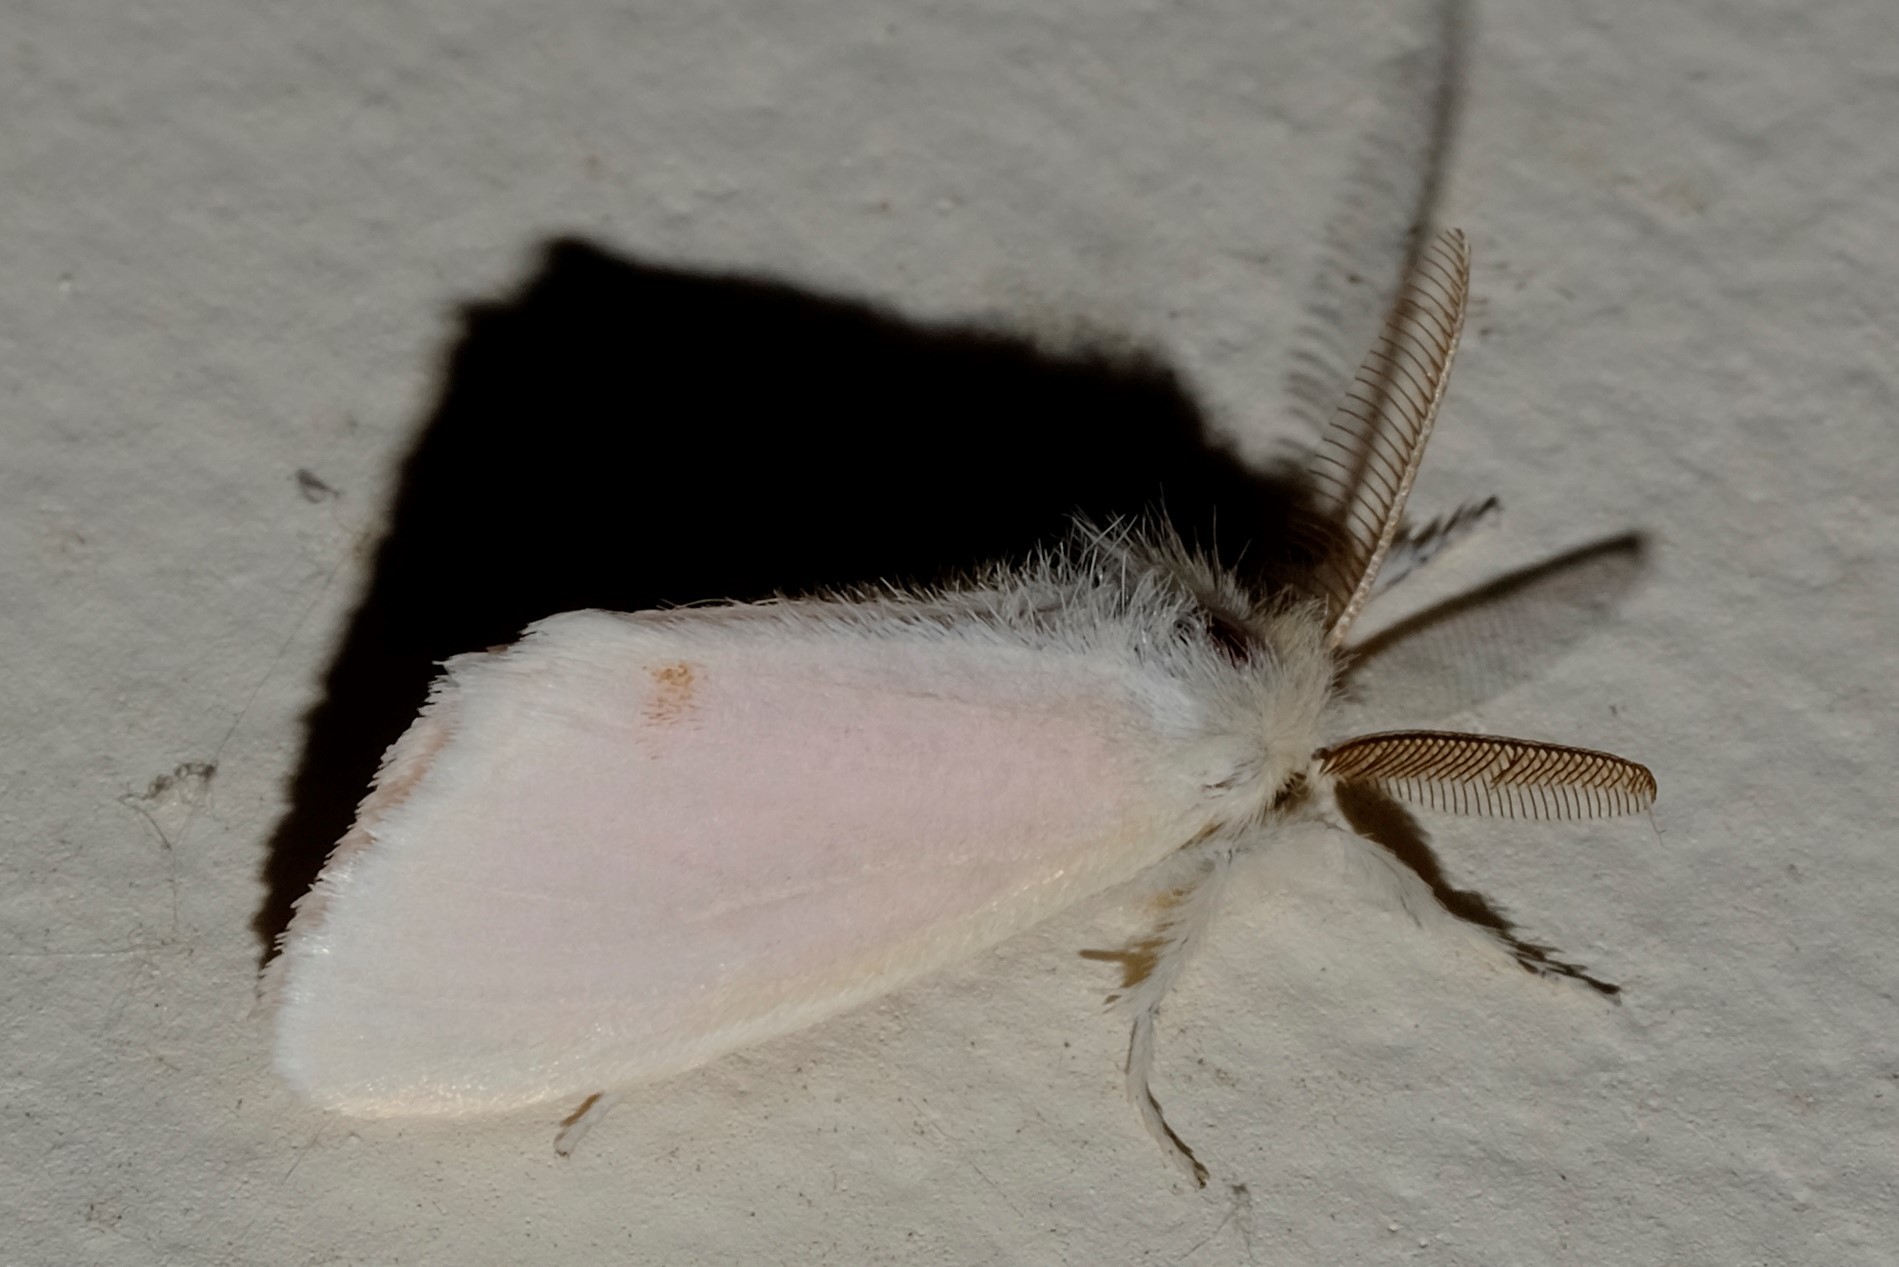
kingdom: Animalia
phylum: Arthropoda
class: Insecta
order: Lepidoptera
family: Erebidae
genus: Acyphas
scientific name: Acyphas semiochrea
